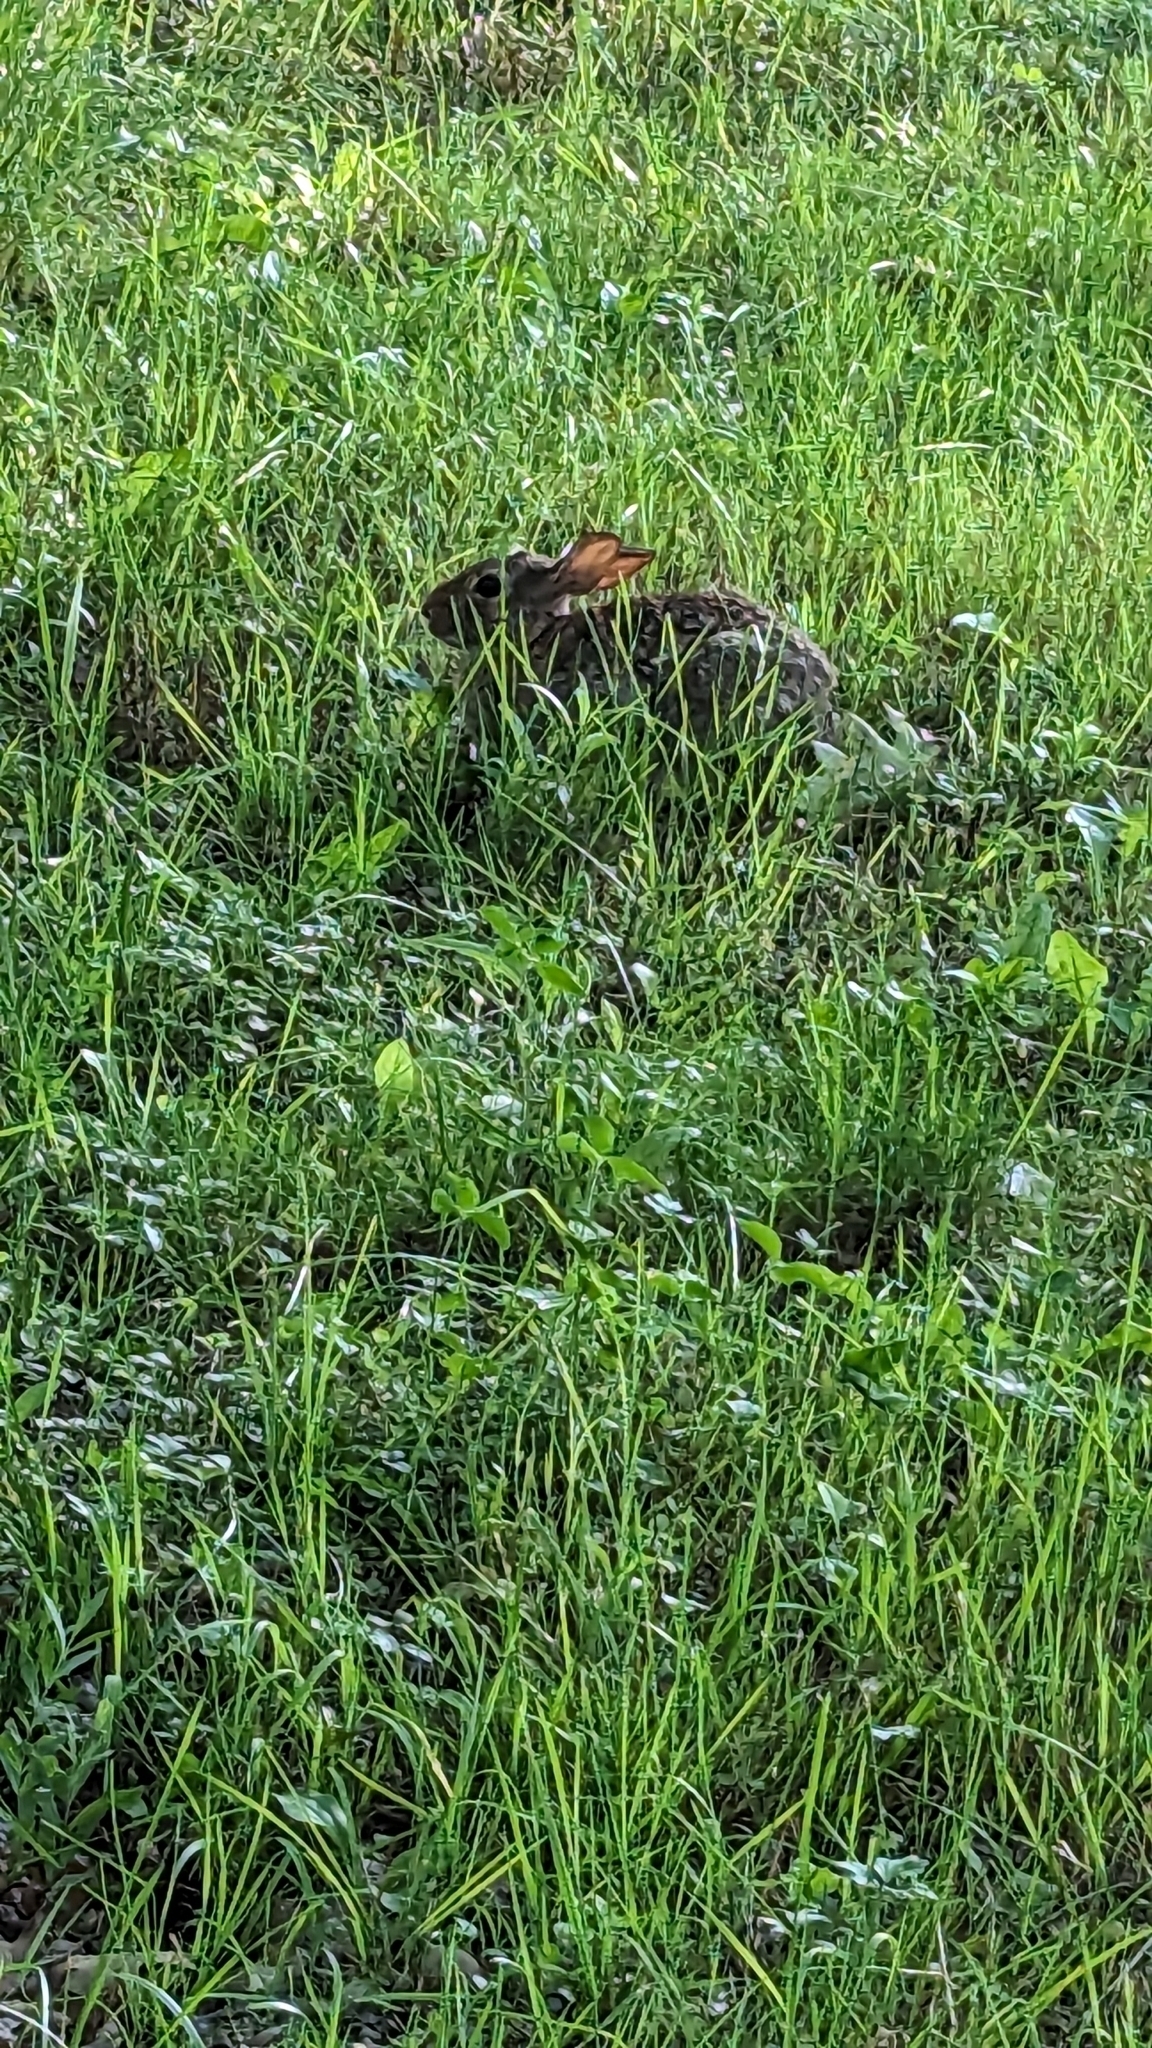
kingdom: Animalia
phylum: Chordata
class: Mammalia
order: Lagomorpha
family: Leporidae
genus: Sylvilagus
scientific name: Sylvilagus floridanus
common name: Eastern cottontail
